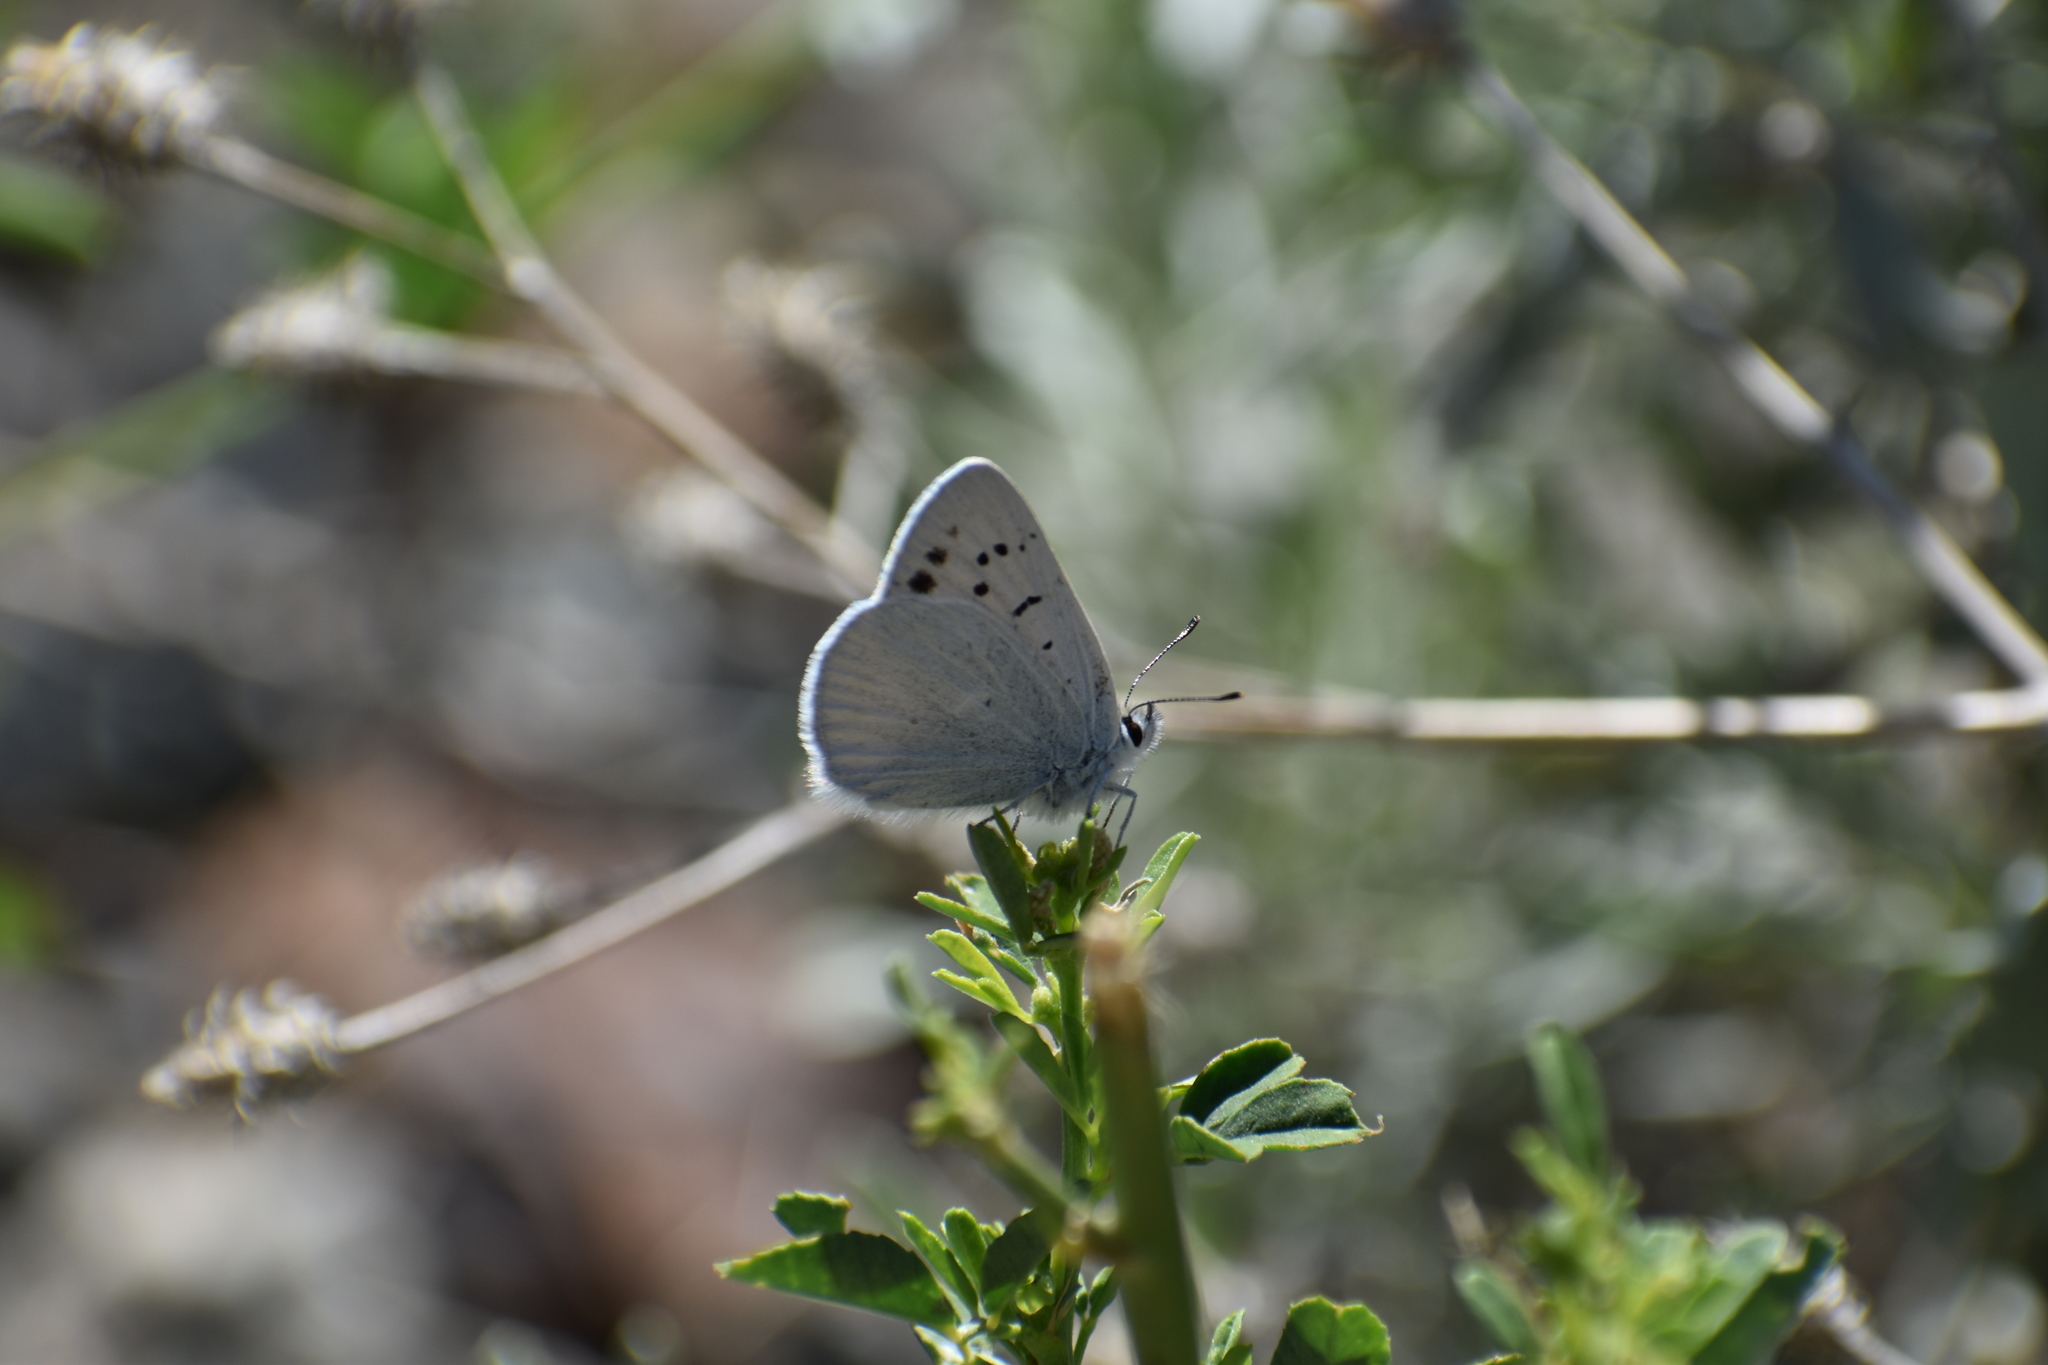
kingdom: Animalia
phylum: Arthropoda
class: Insecta
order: Lepidoptera
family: Lycaenidae
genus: Tharsalea
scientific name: Tharsalea heteronea
